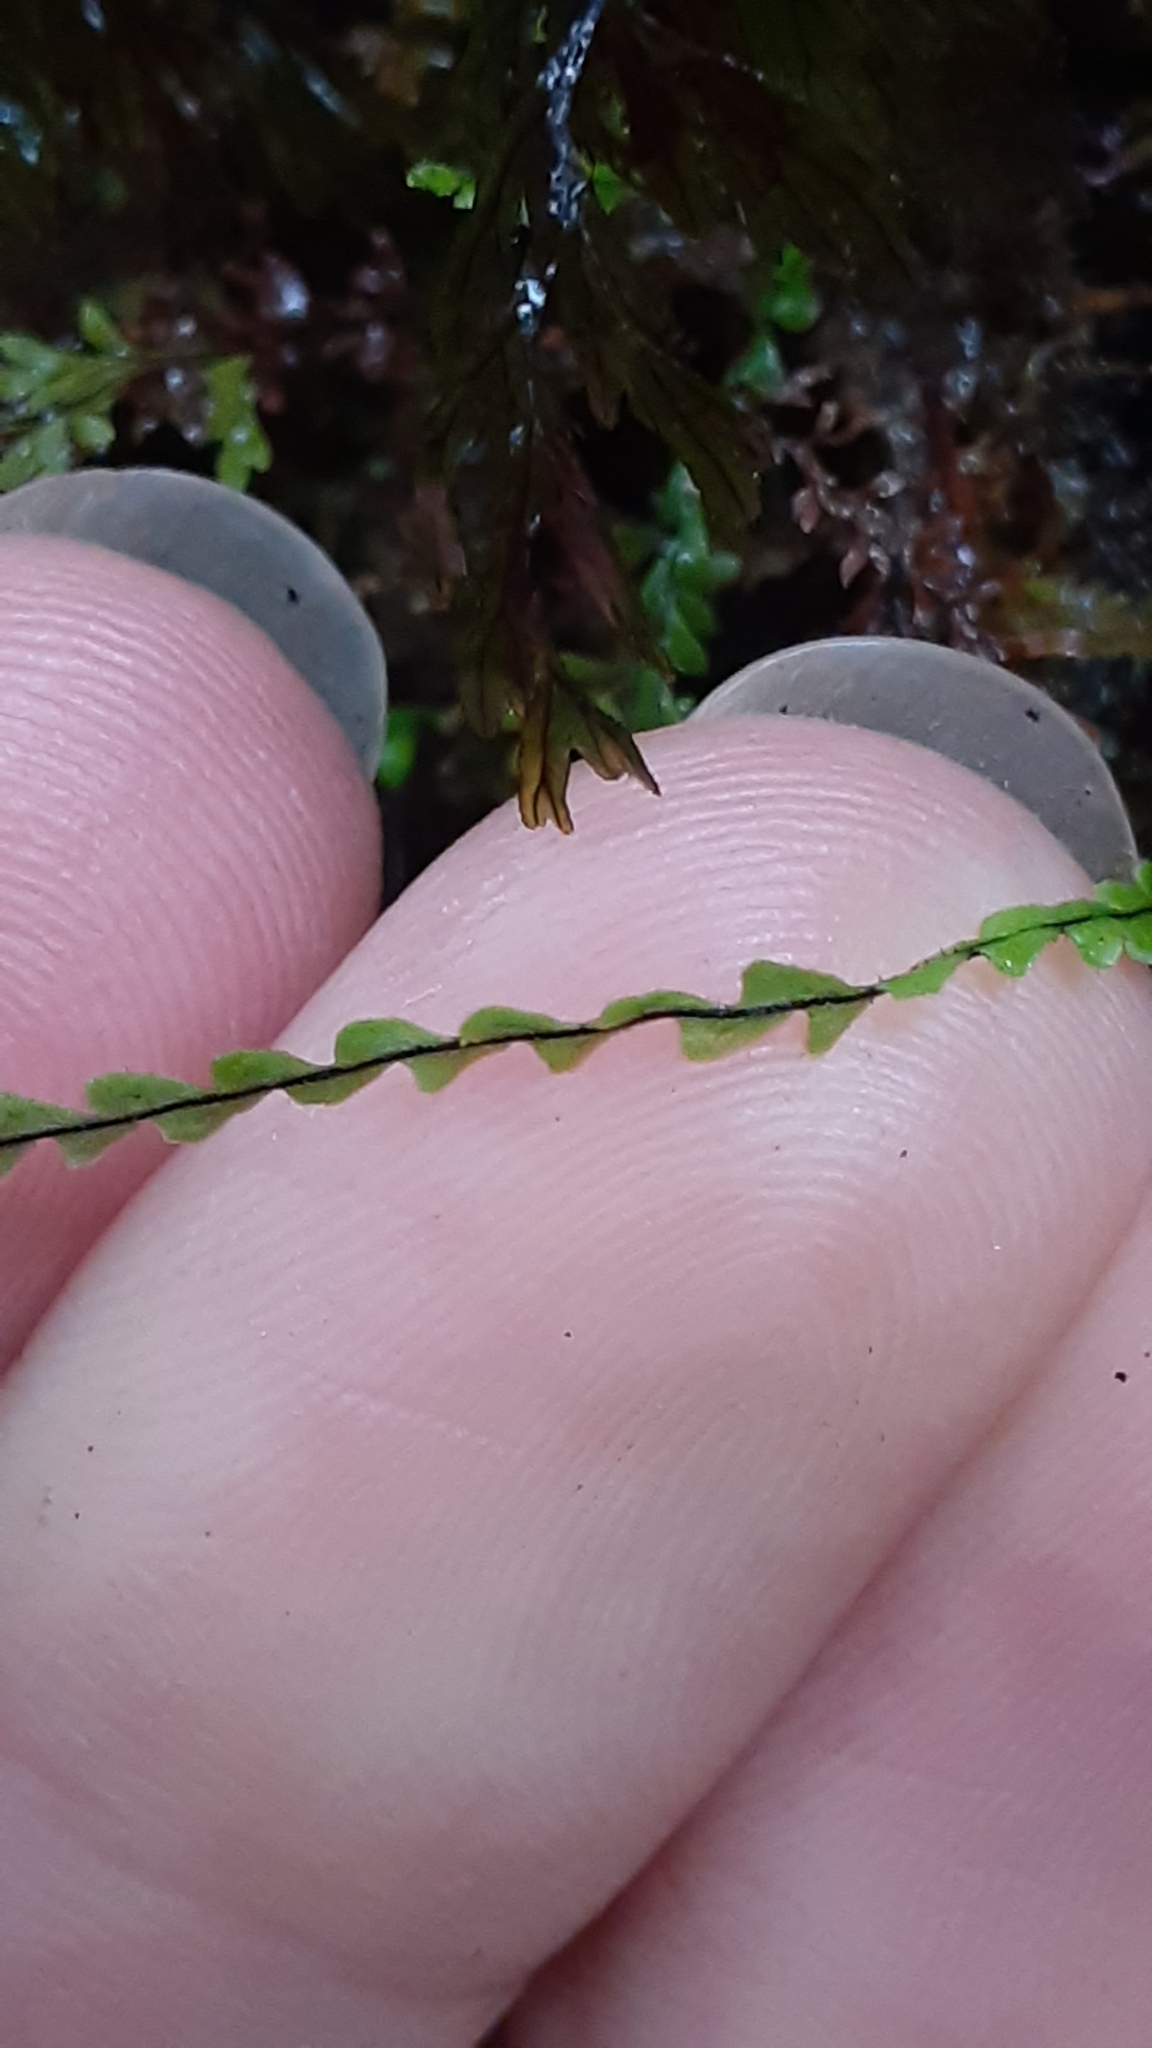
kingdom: Plantae
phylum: Tracheophyta
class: Polypodiopsida
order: Polypodiales
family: Polypodiaceae
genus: Stenogrammitis
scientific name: Stenogrammitis saffordii
